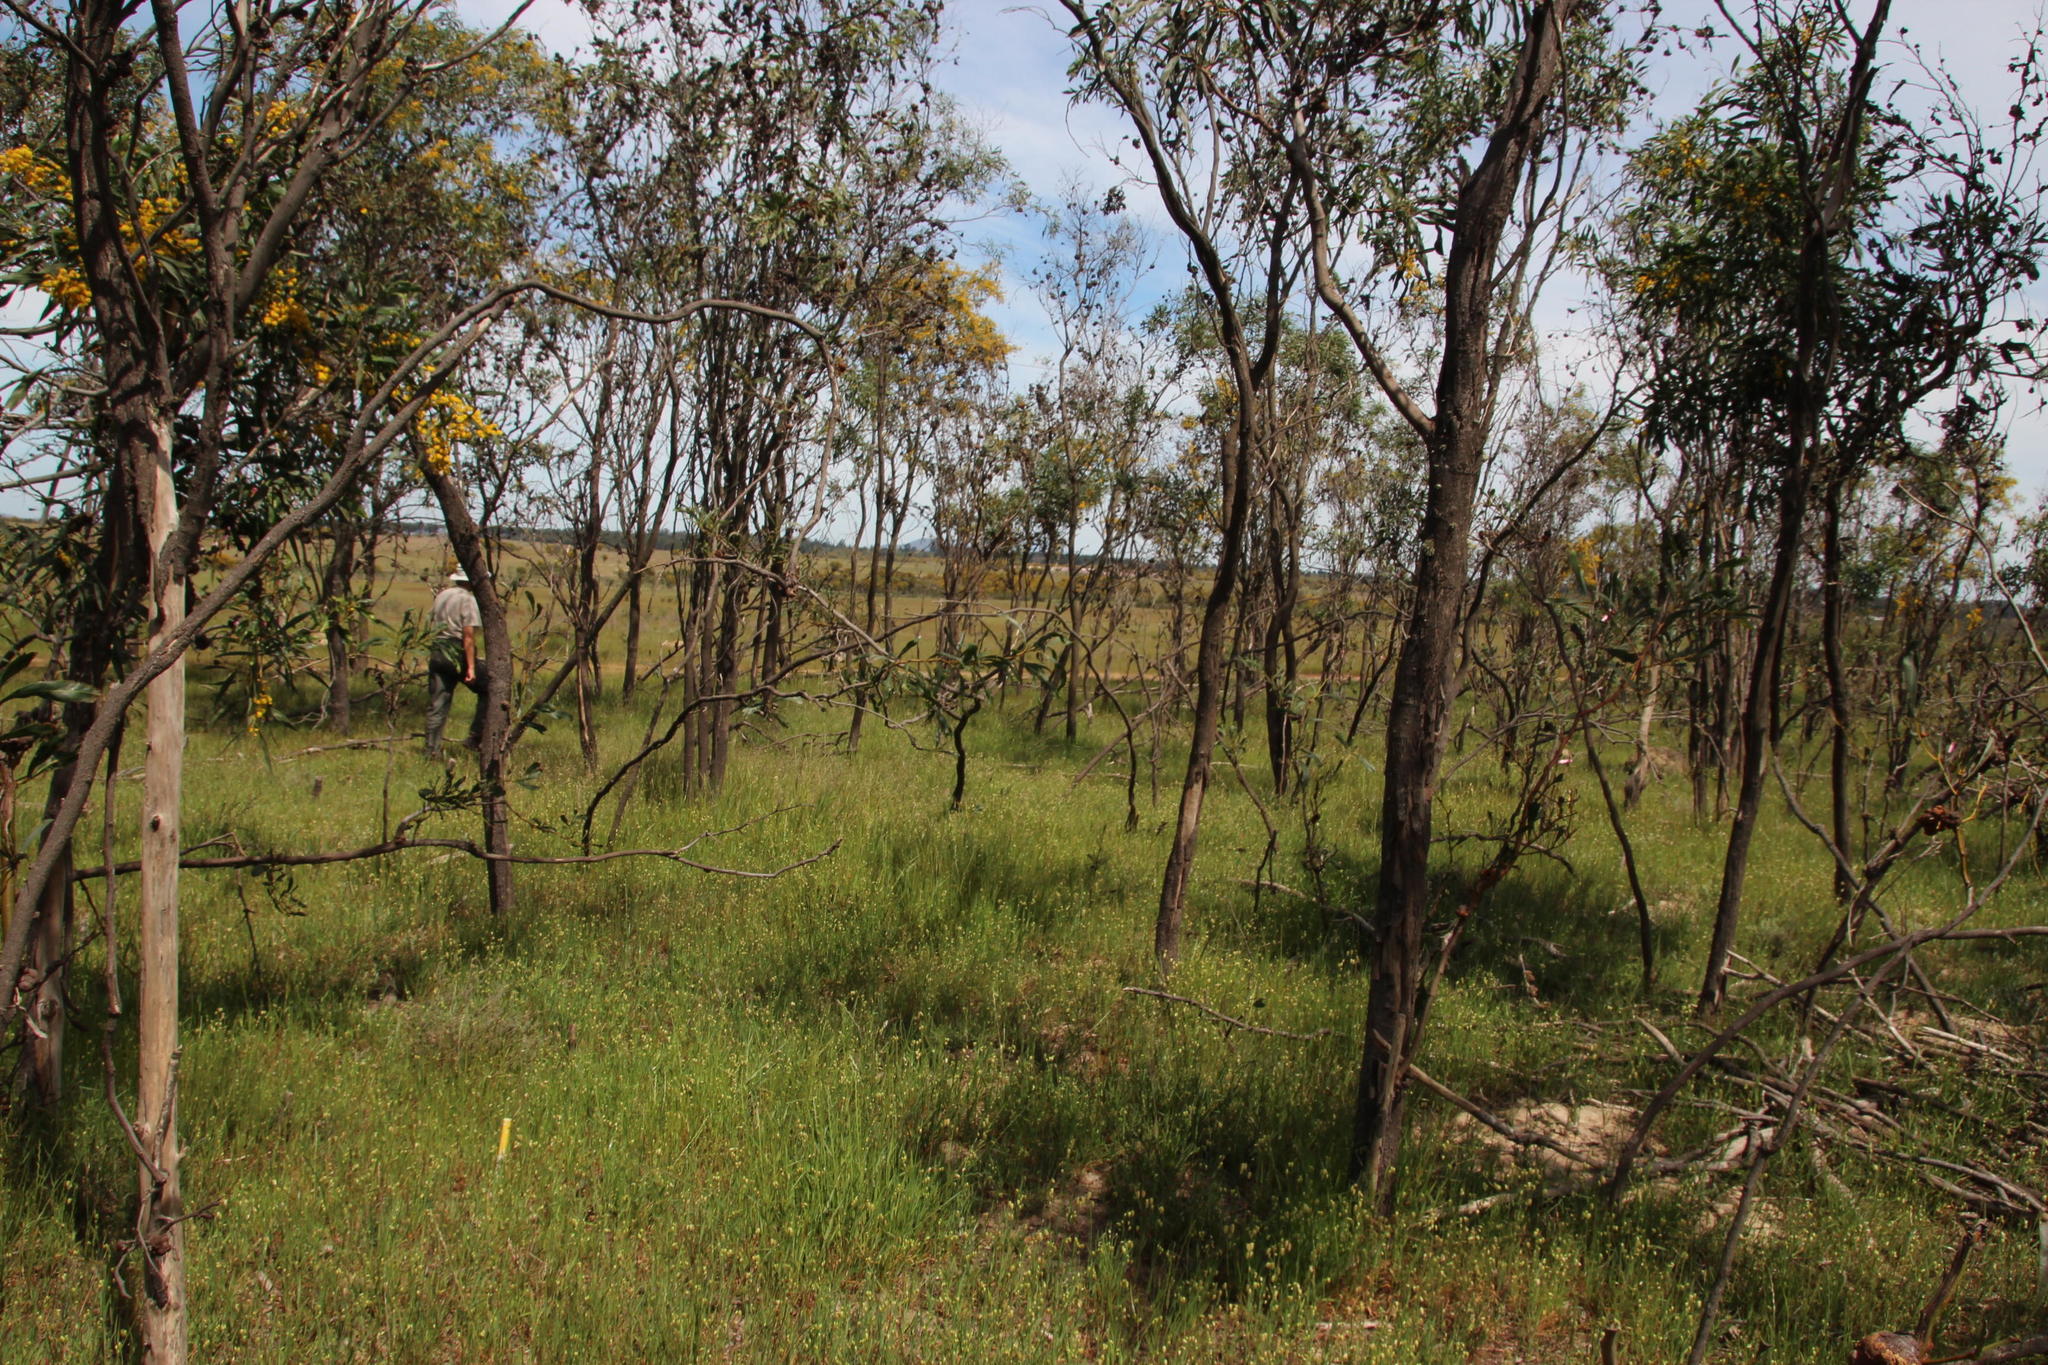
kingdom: Plantae
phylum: Tracheophyta
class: Liliopsida
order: Poales
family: Poaceae
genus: Briza
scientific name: Briza maxima
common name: Big quakinggrass
